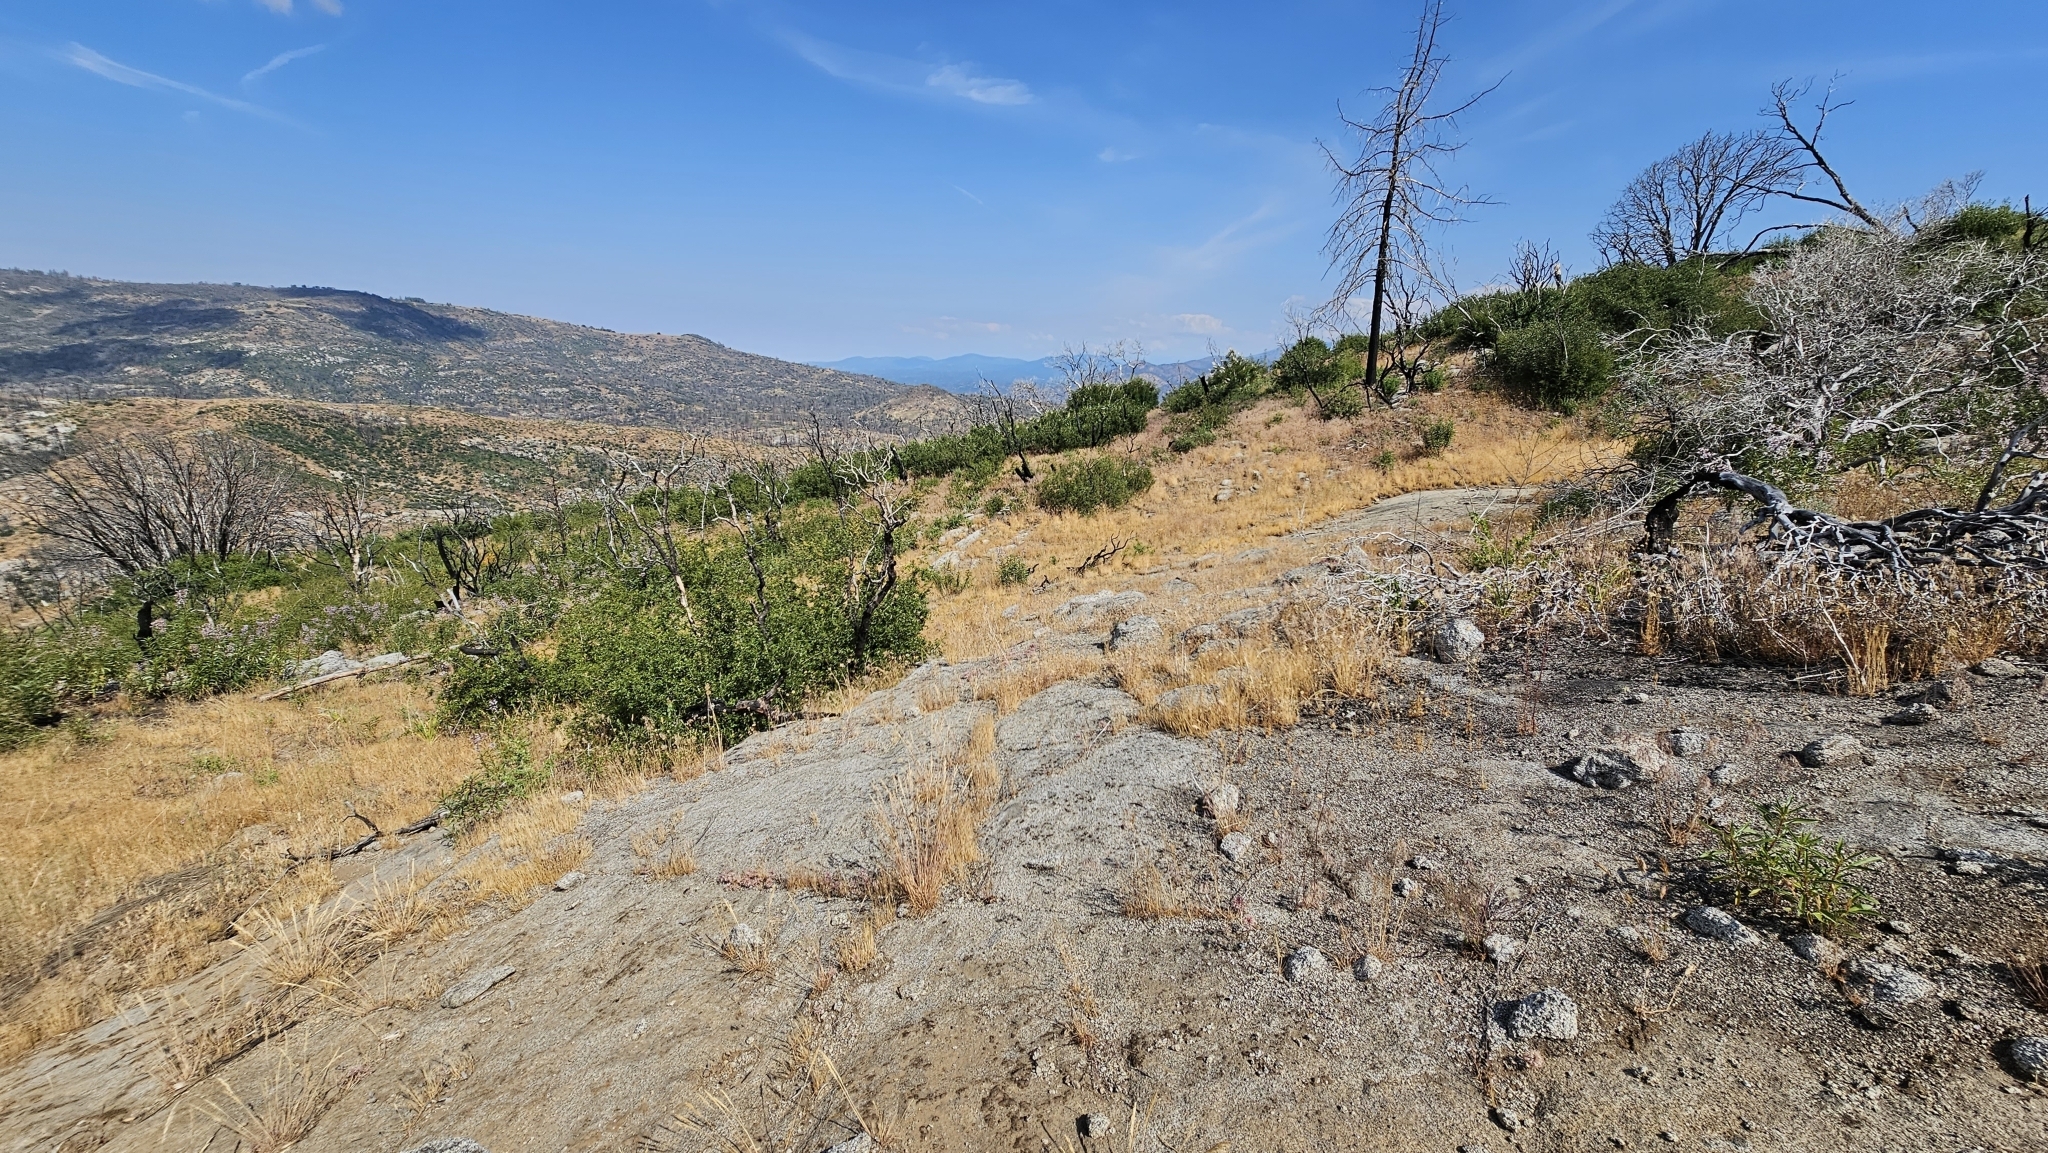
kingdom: Plantae
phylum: Tracheophyta
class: Liliopsida
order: Asparagales
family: Amaryllidaceae
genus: Allium
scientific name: Allium abramsii
